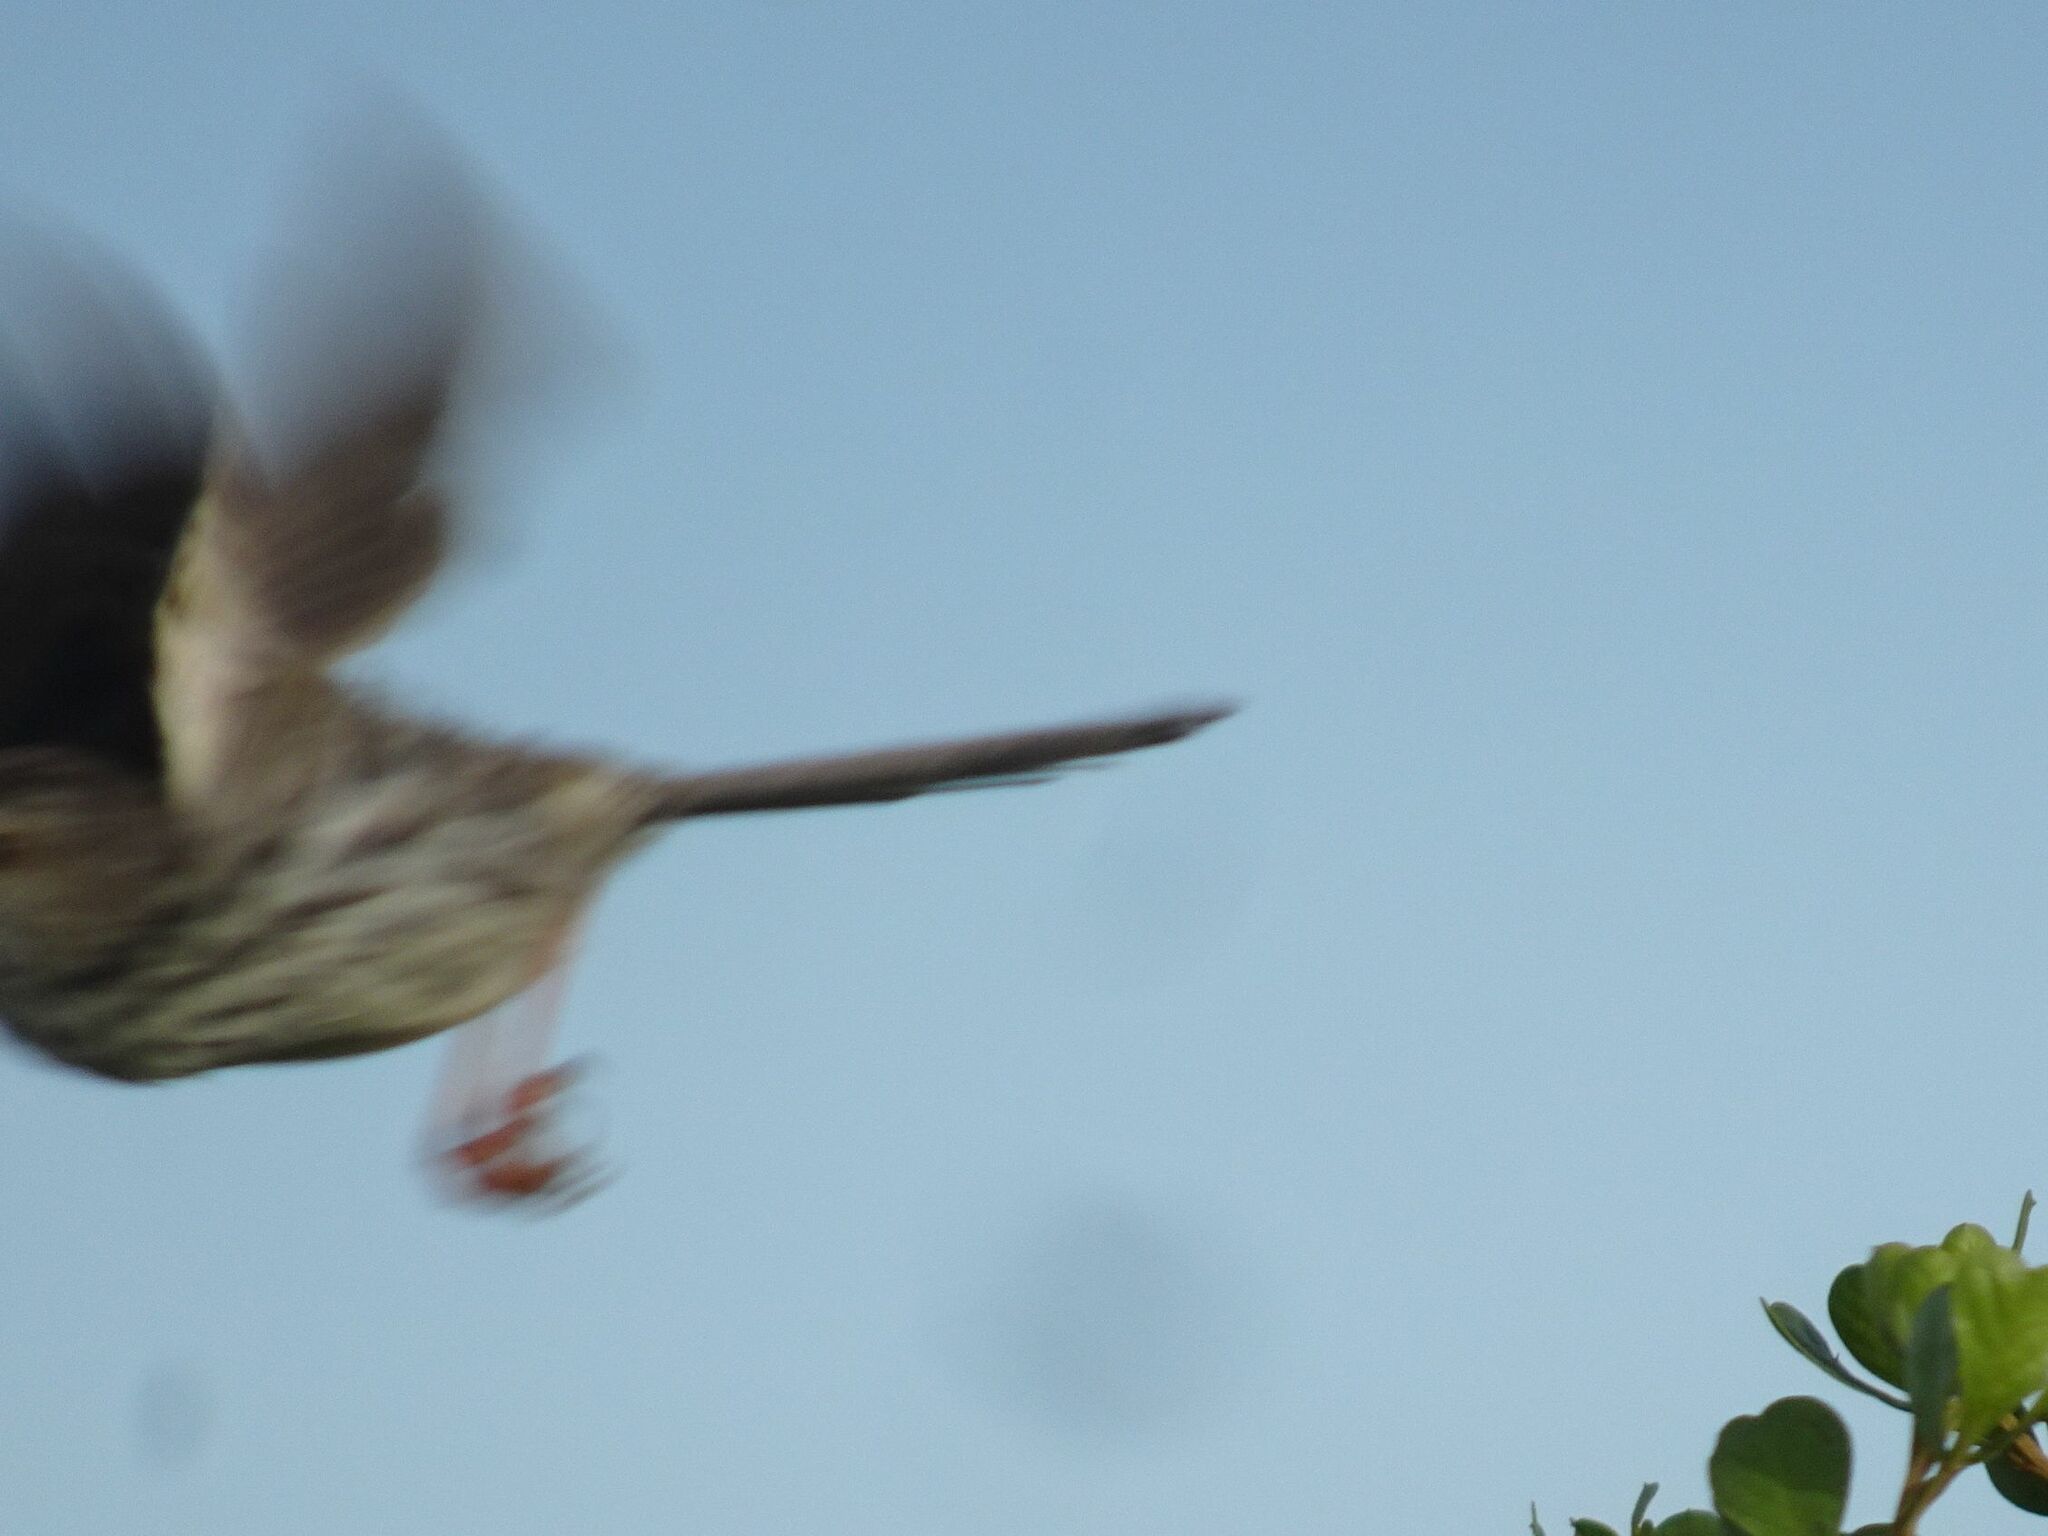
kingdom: Animalia
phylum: Chordata
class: Aves
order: Passeriformes
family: Cisticolidae
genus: Prinia
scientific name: Prinia maculosa
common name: Karoo prinia
